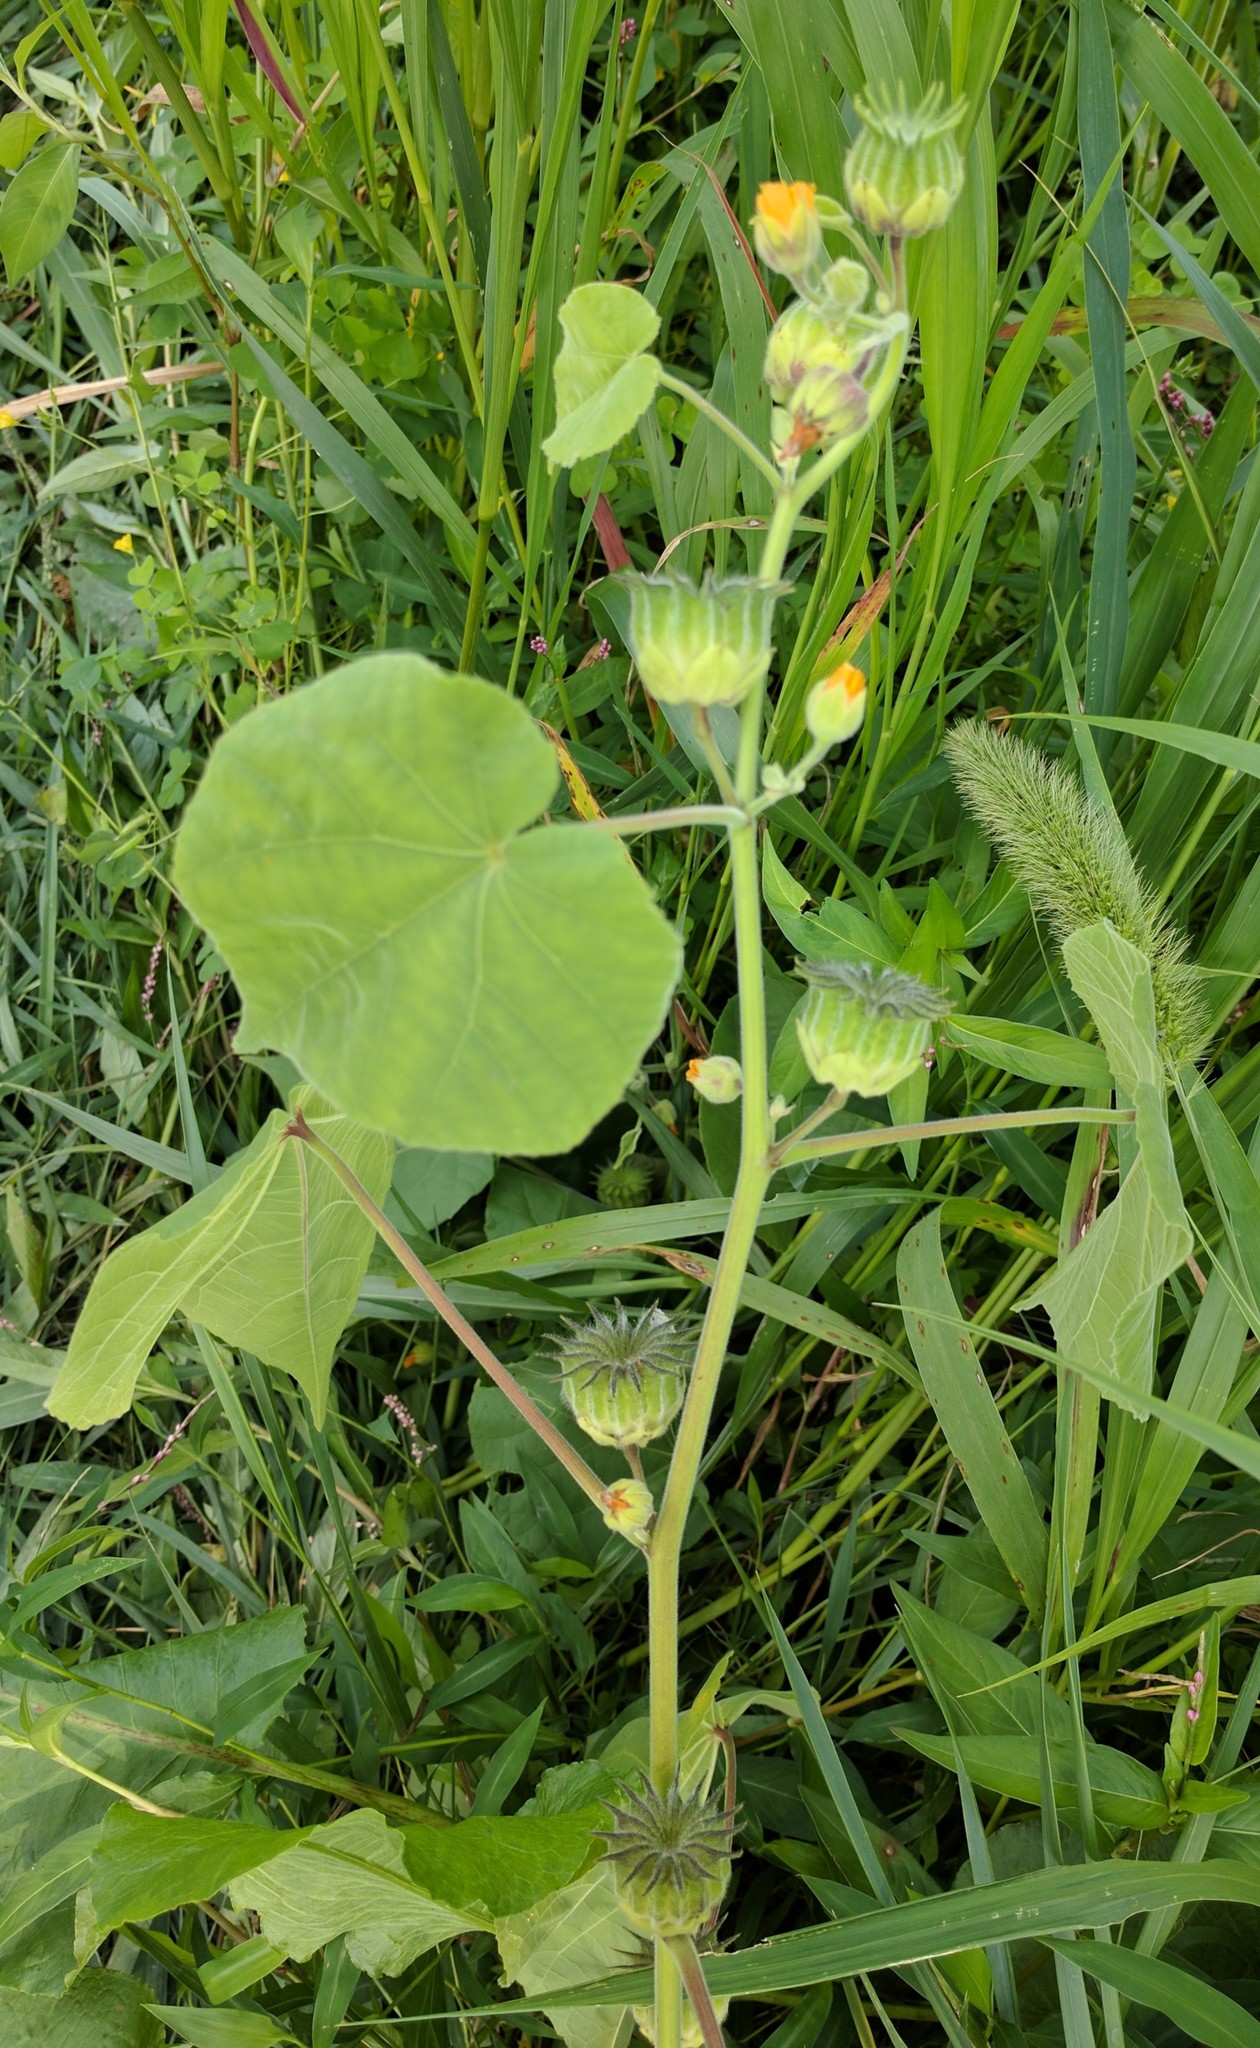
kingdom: Plantae
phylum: Tracheophyta
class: Magnoliopsida
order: Malvales
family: Malvaceae
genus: Abutilon
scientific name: Abutilon theophrasti
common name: Velvetleaf
